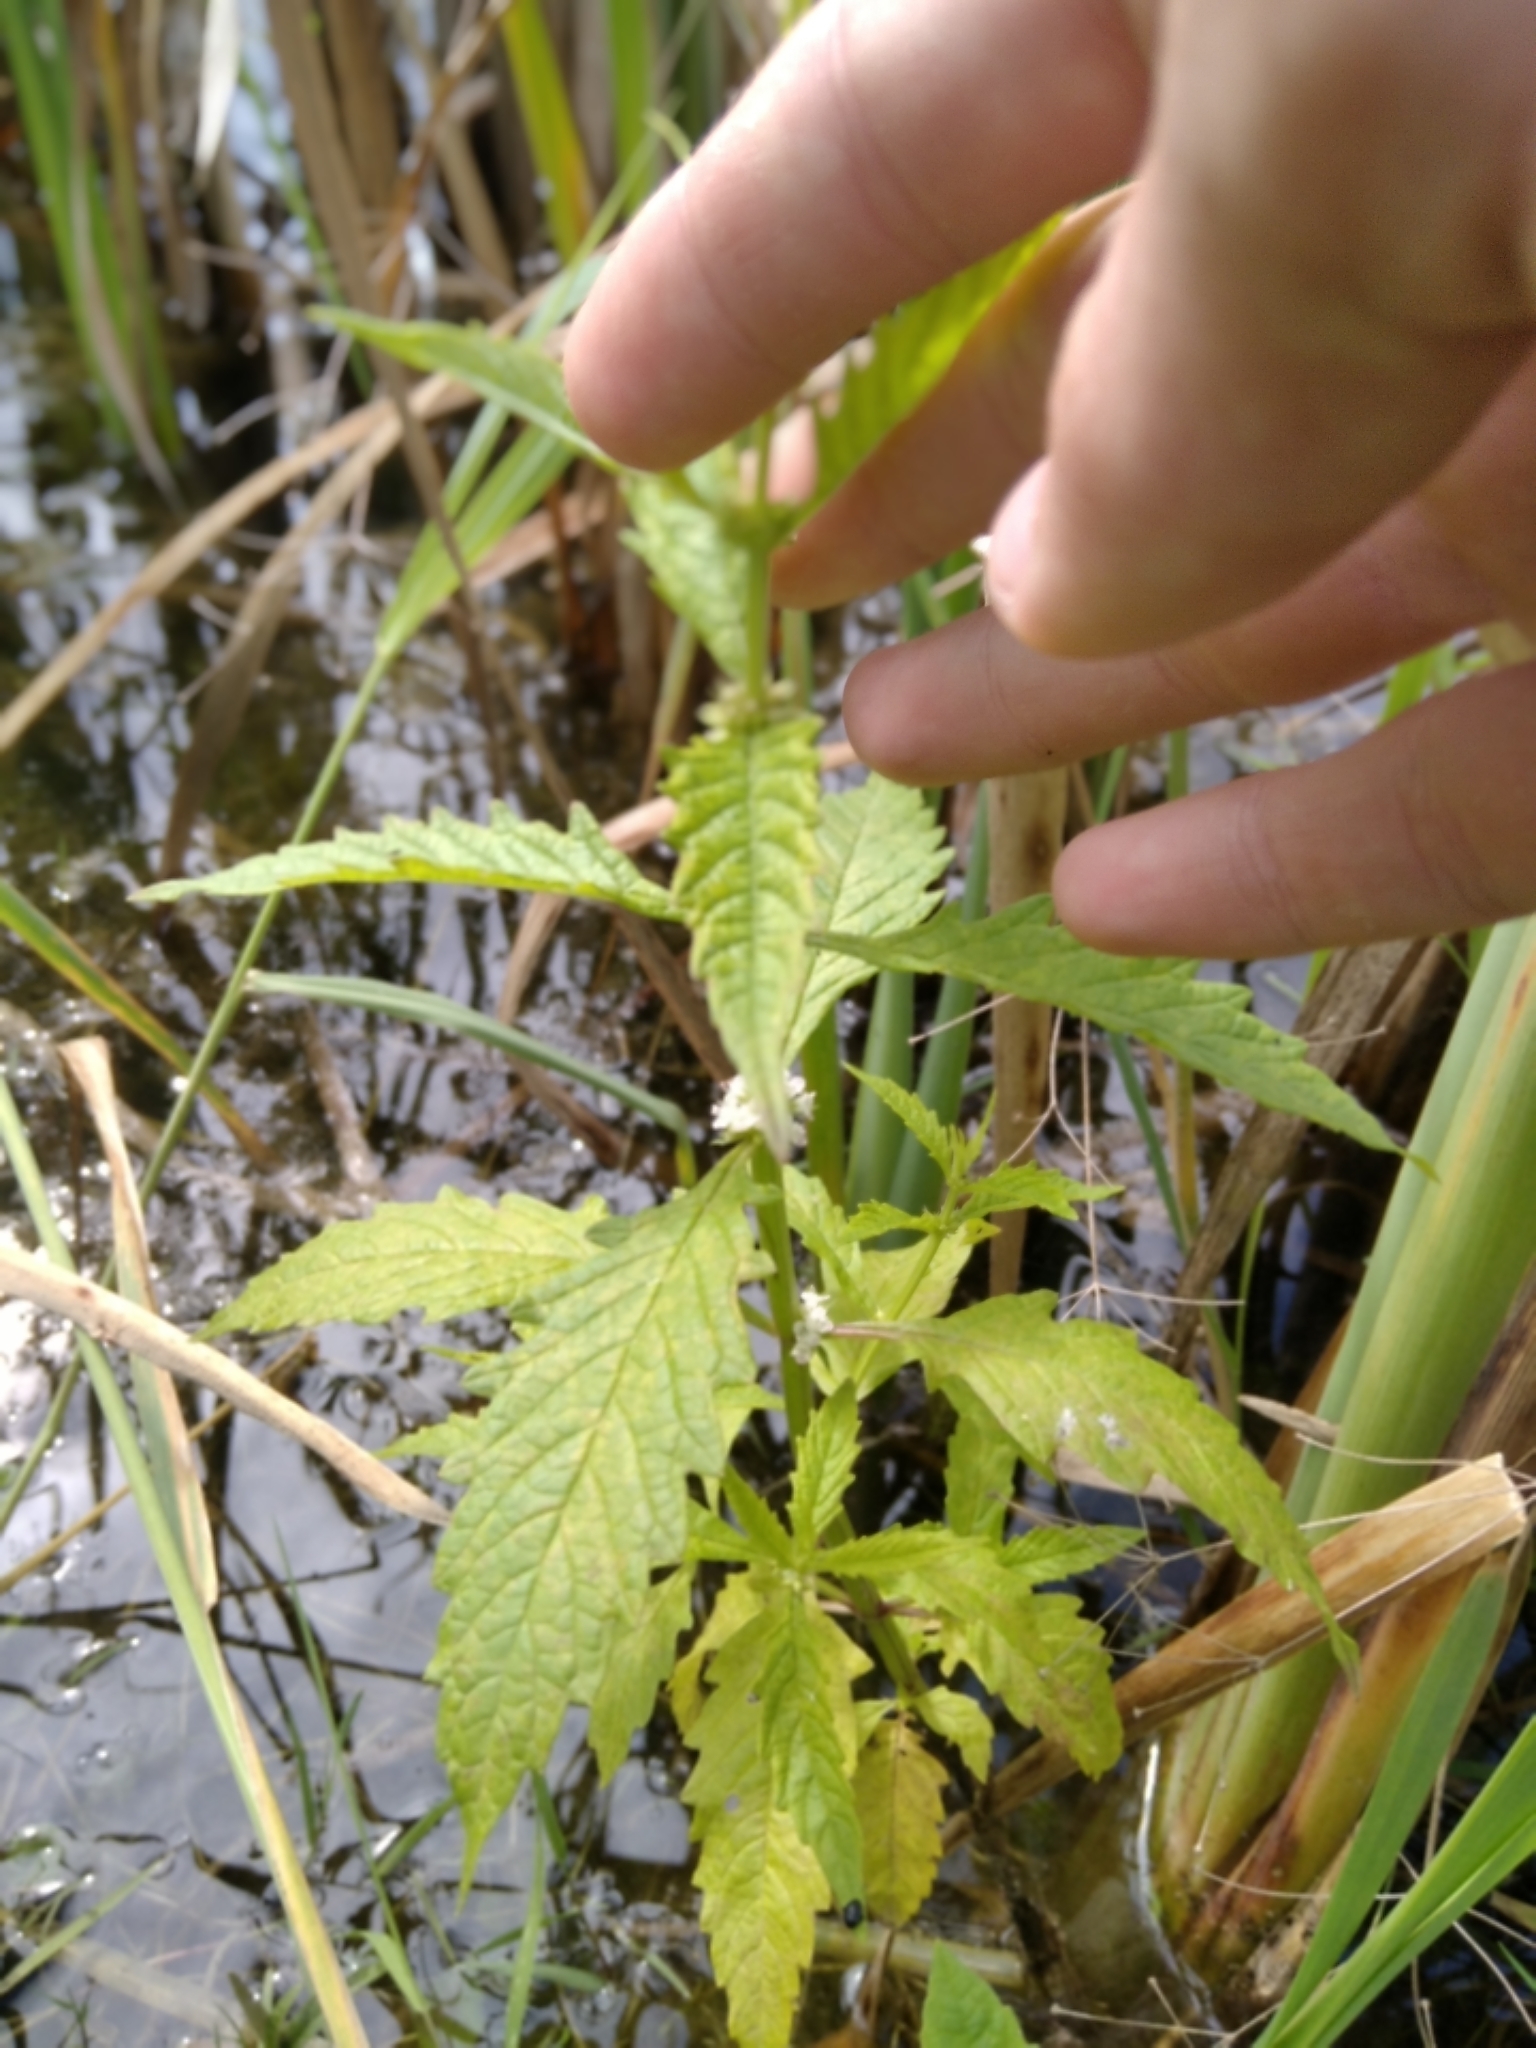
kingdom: Plantae
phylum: Tracheophyta
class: Magnoliopsida
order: Lamiales
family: Lamiaceae
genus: Lycopus
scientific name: Lycopus europaeus
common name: European bugleweed
